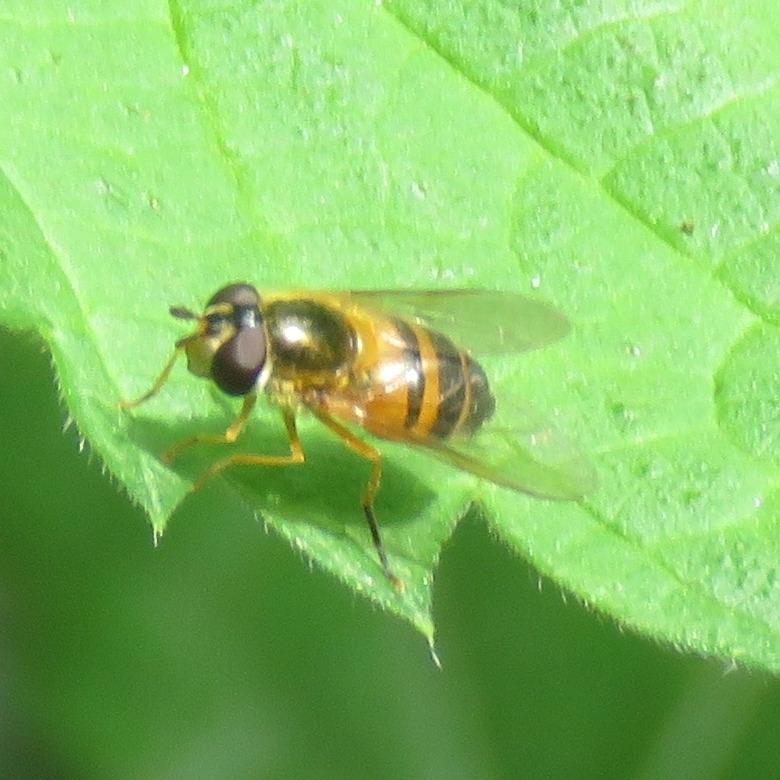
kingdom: Animalia
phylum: Arthropoda
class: Insecta
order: Diptera
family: Syrphidae
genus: Epistrophe
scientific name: Epistrophe eligans
